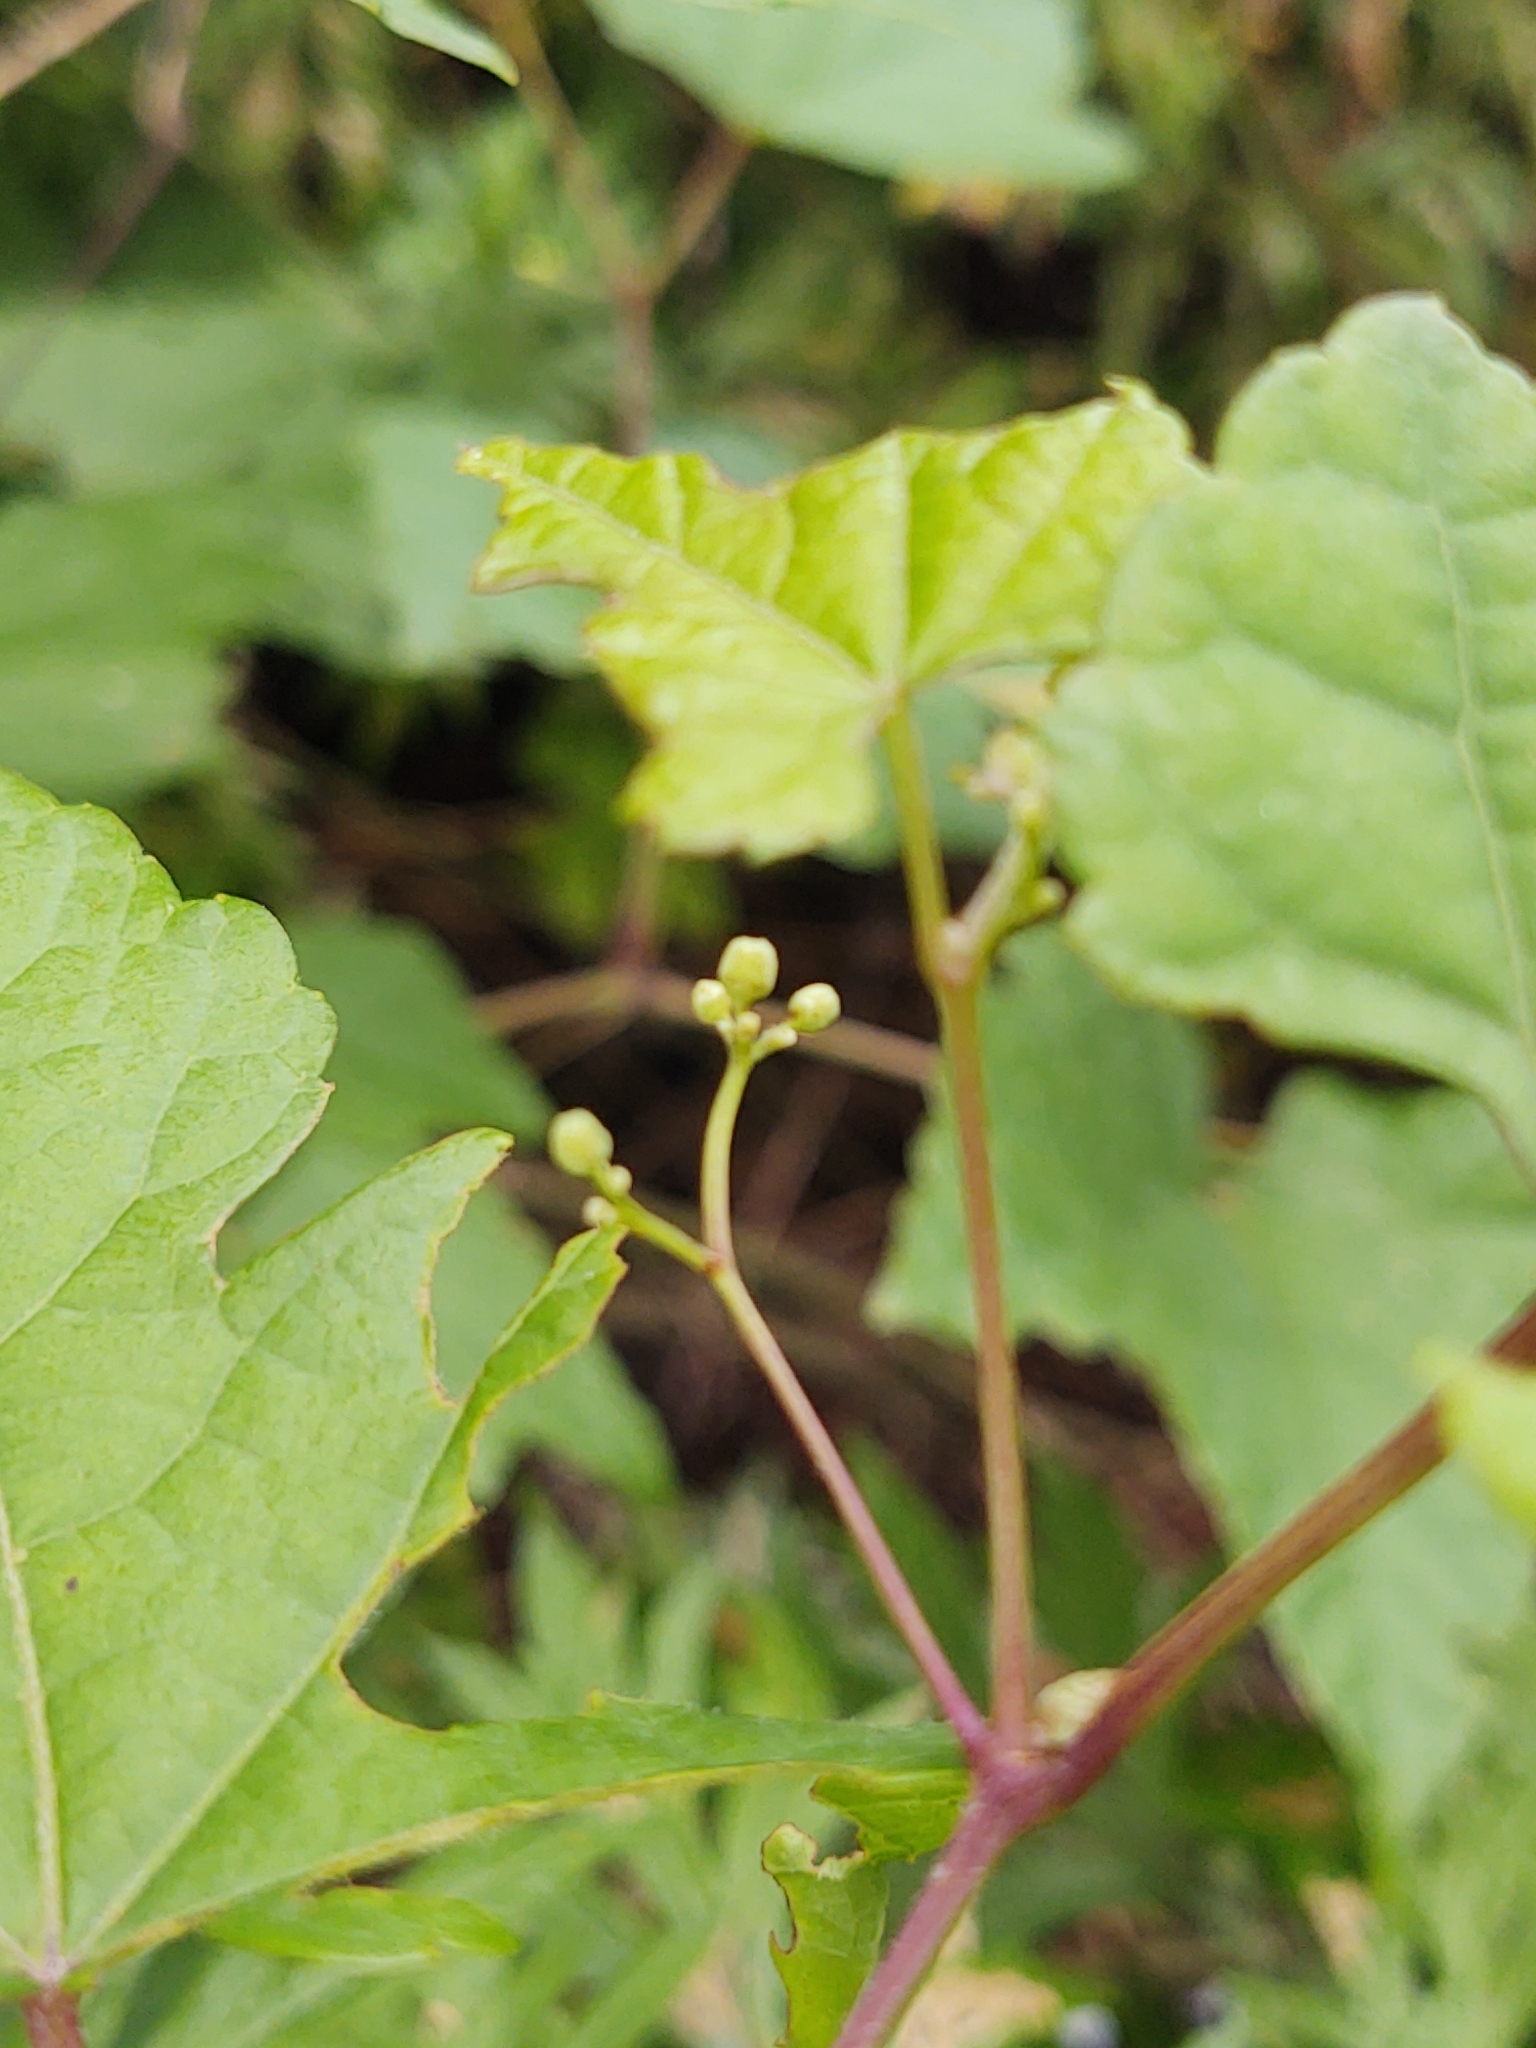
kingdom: Plantae
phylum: Tracheophyta
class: Magnoliopsida
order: Vitales
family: Vitaceae
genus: Ampelopsis
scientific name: Ampelopsis glandulosa
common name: Amur peppervine
